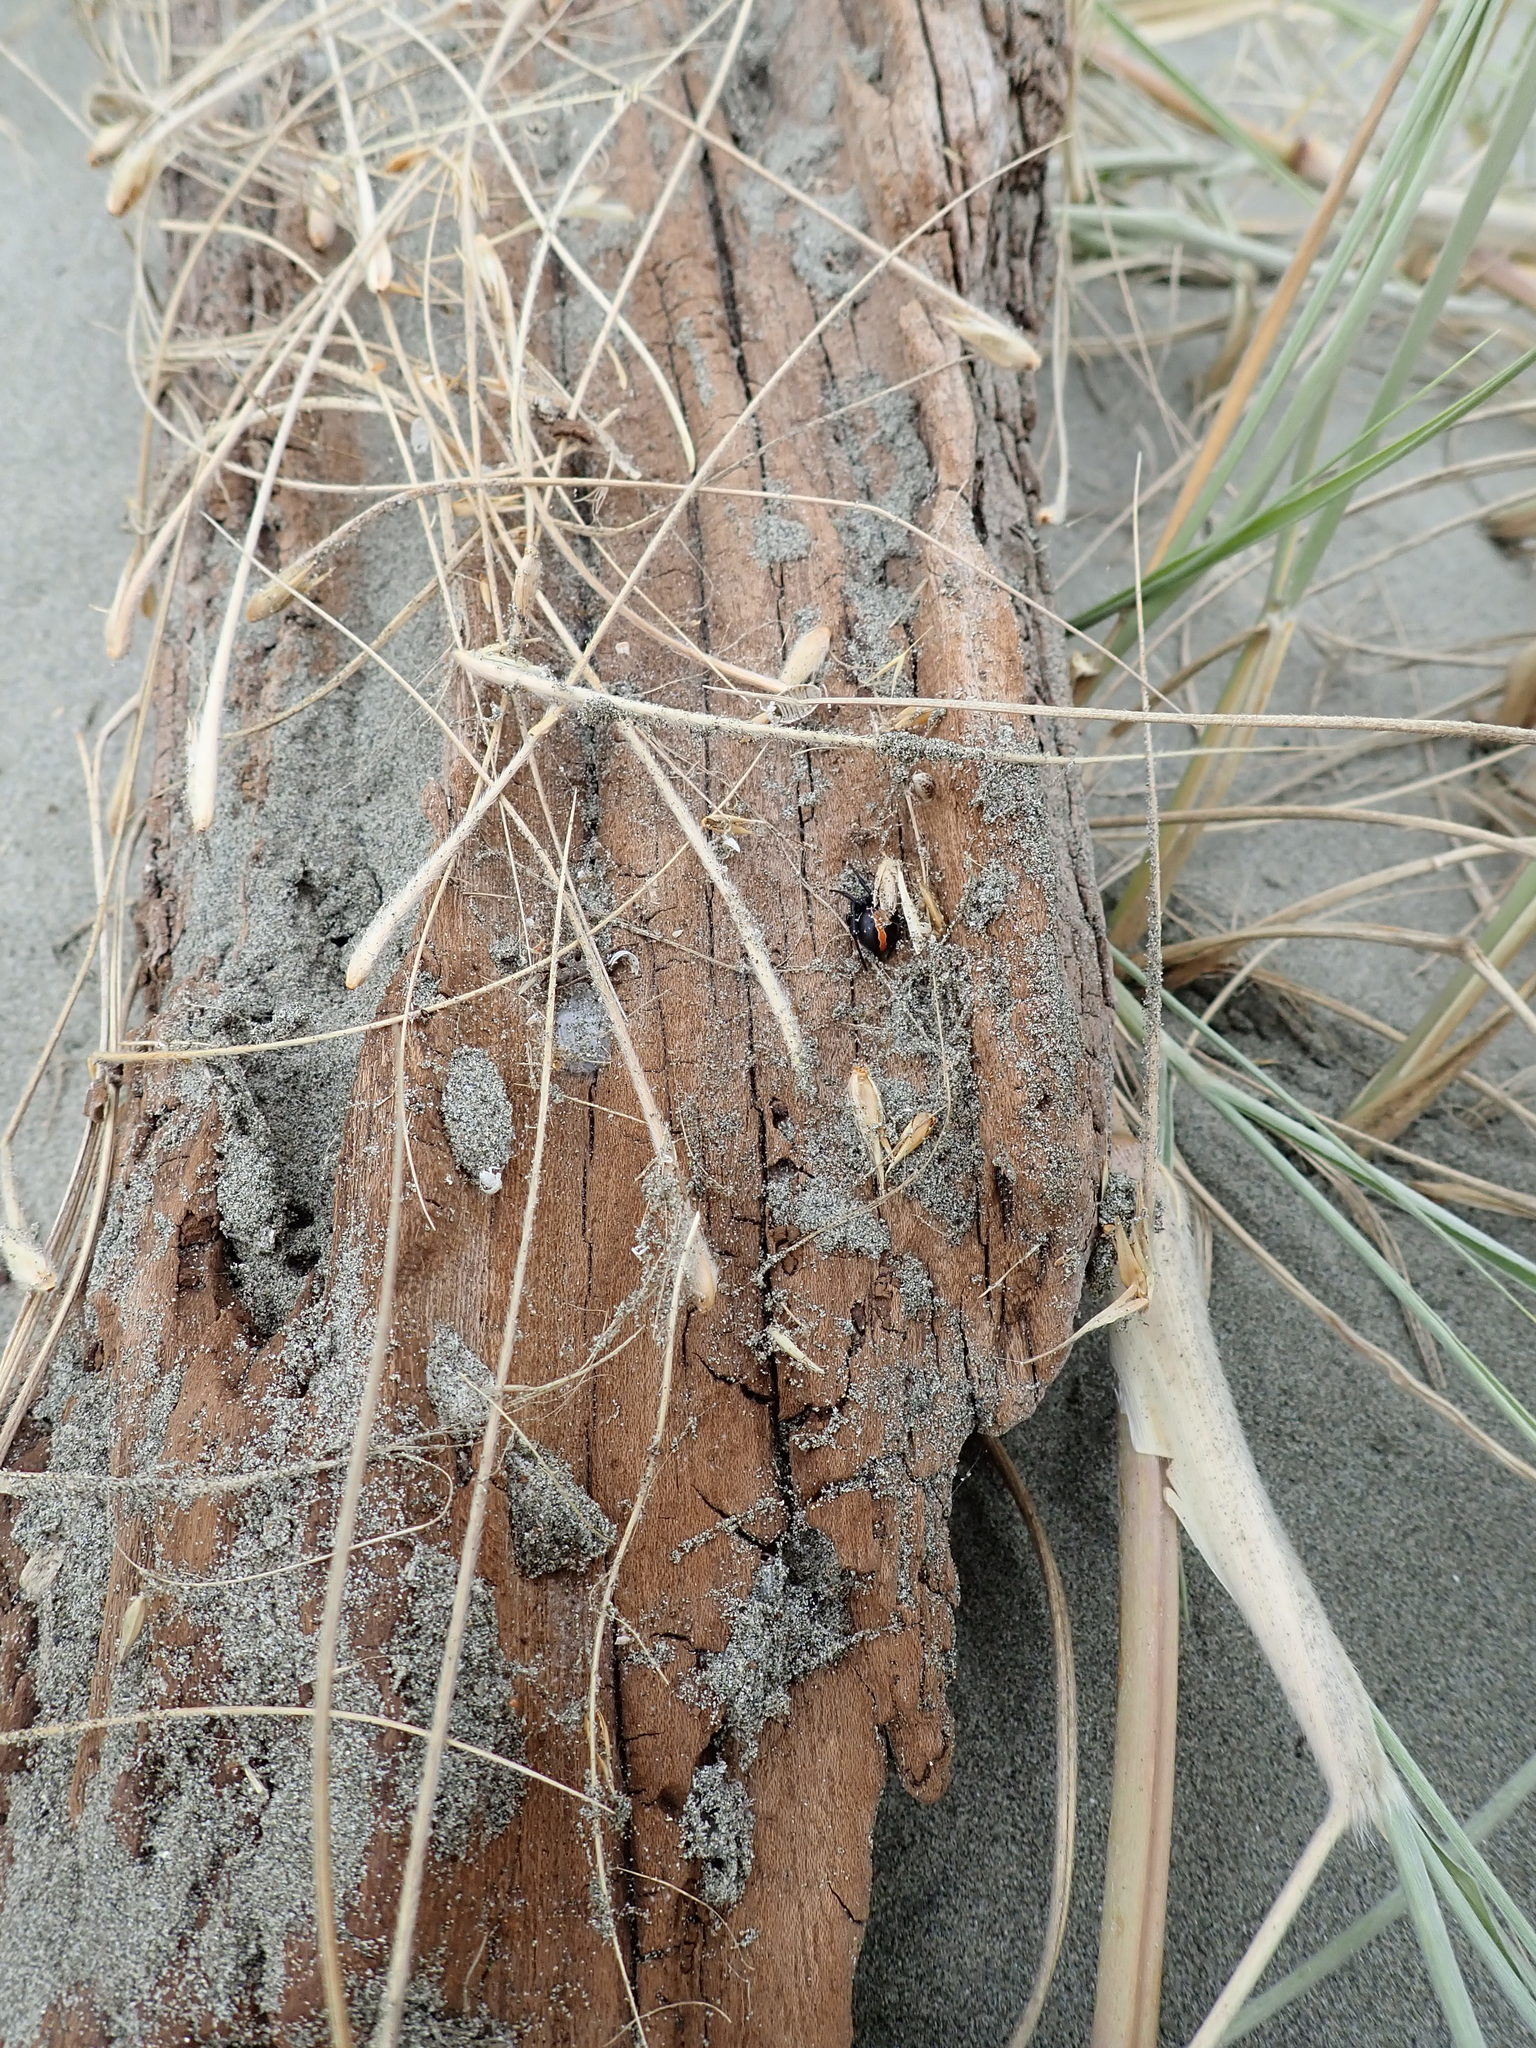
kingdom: Animalia
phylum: Arthropoda
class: Arachnida
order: Araneae
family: Theridiidae
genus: Latrodectus
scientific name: Latrodectus katipo
